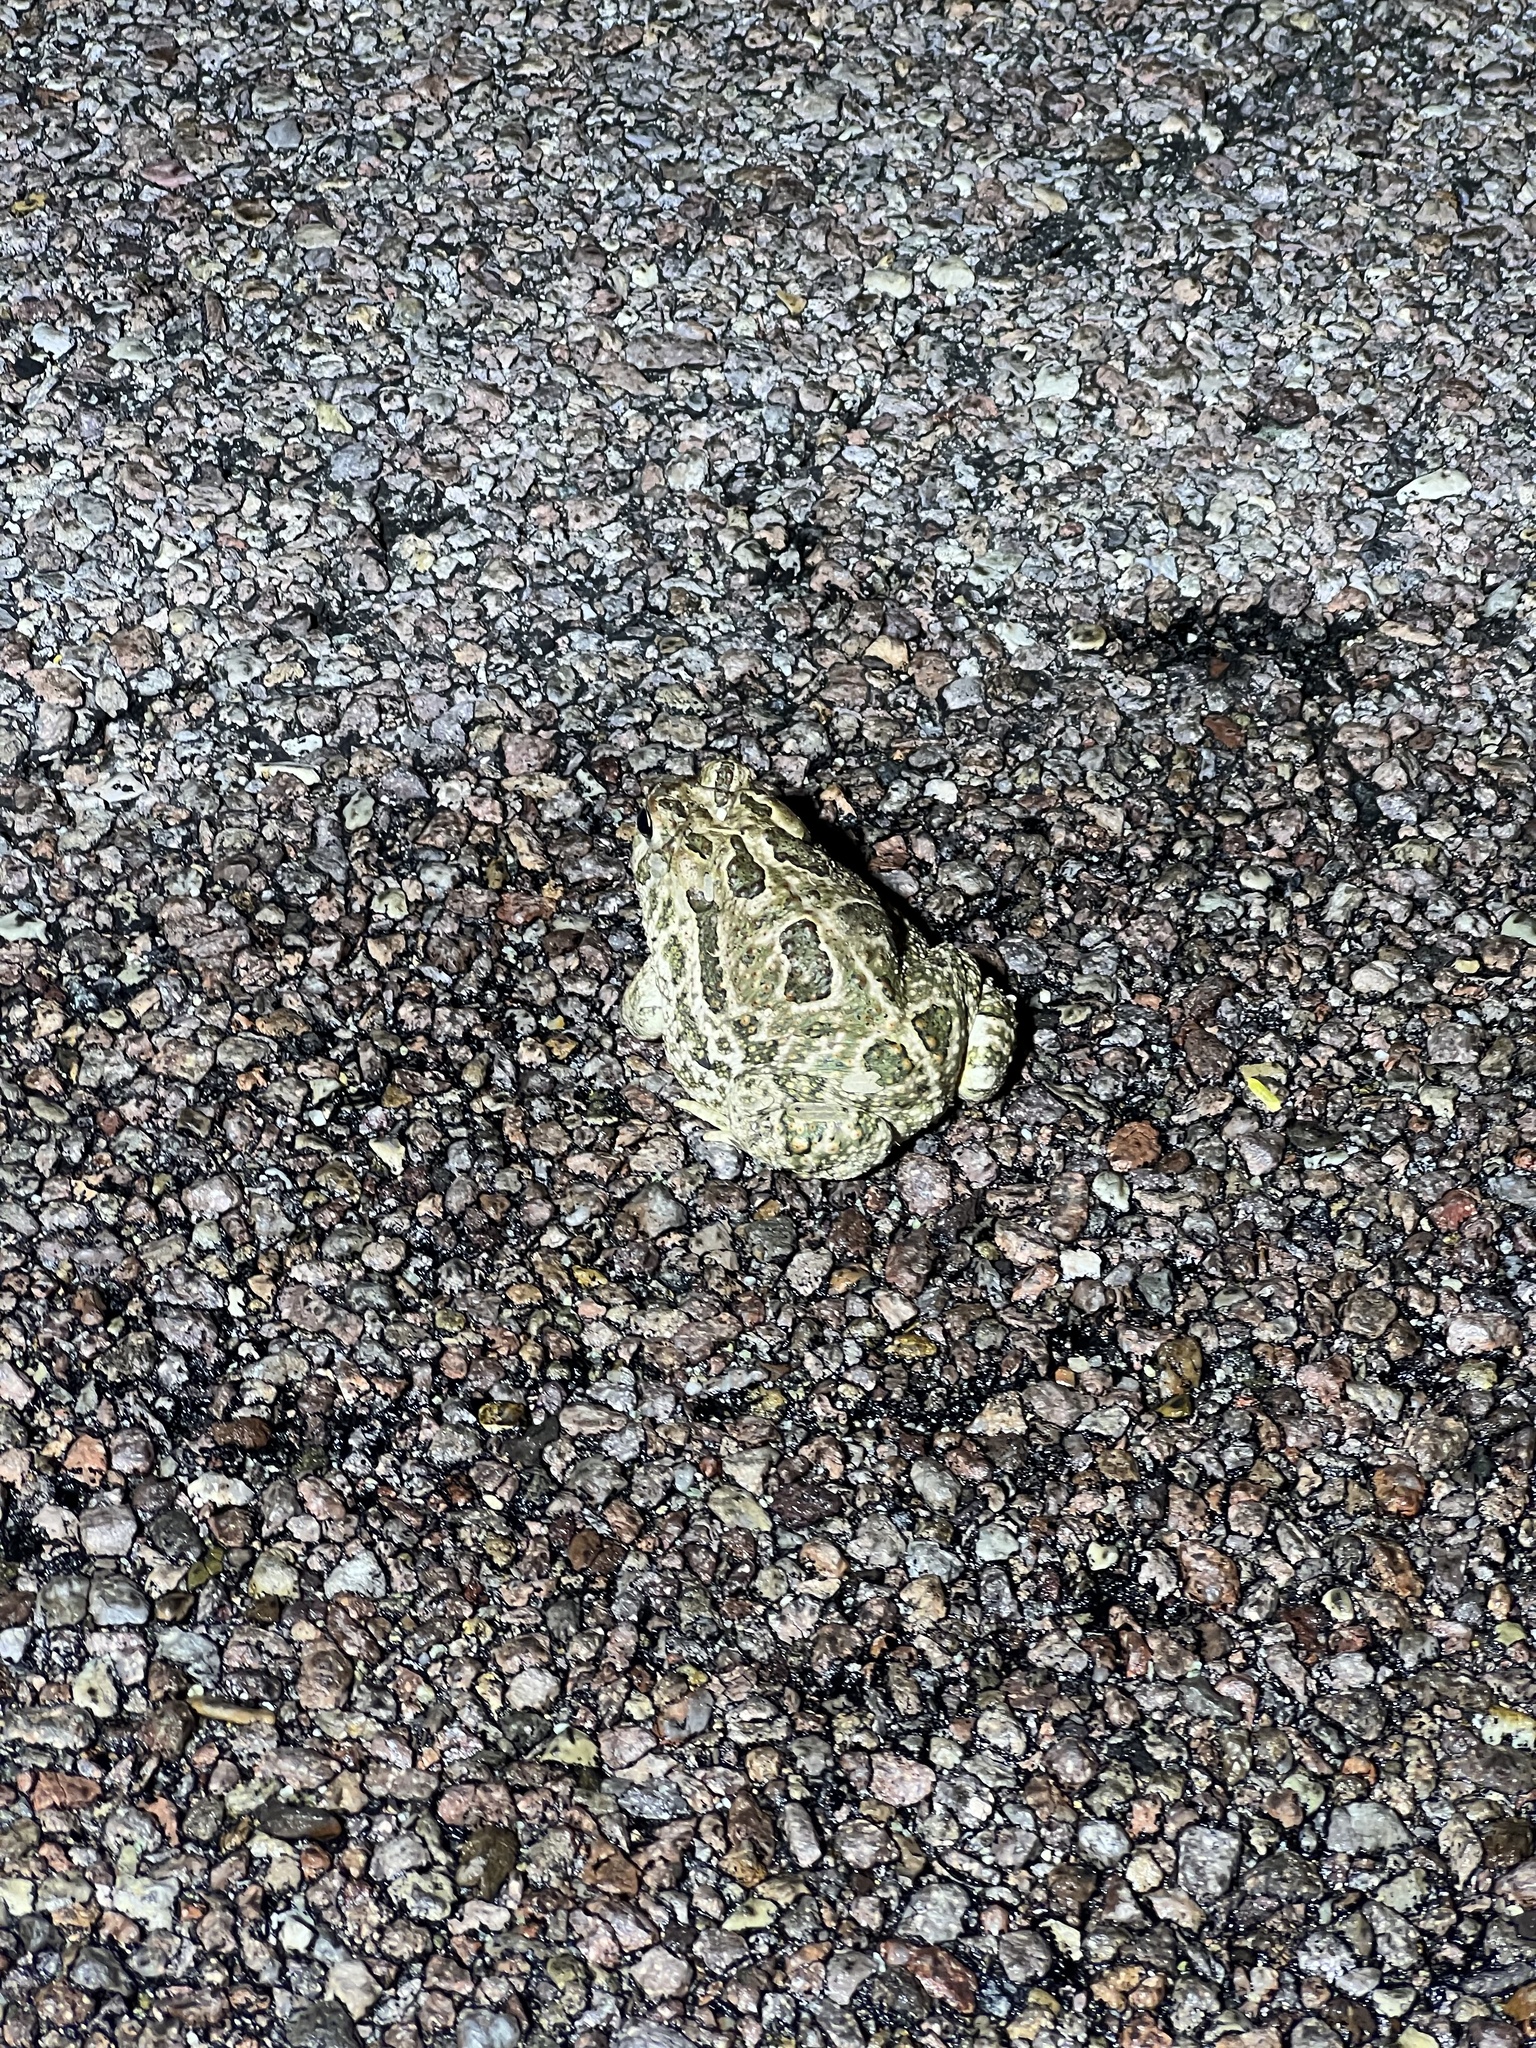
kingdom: Animalia
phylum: Chordata
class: Amphibia
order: Anura
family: Bufonidae
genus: Anaxyrus
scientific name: Anaxyrus cognatus
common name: Great plains toad
